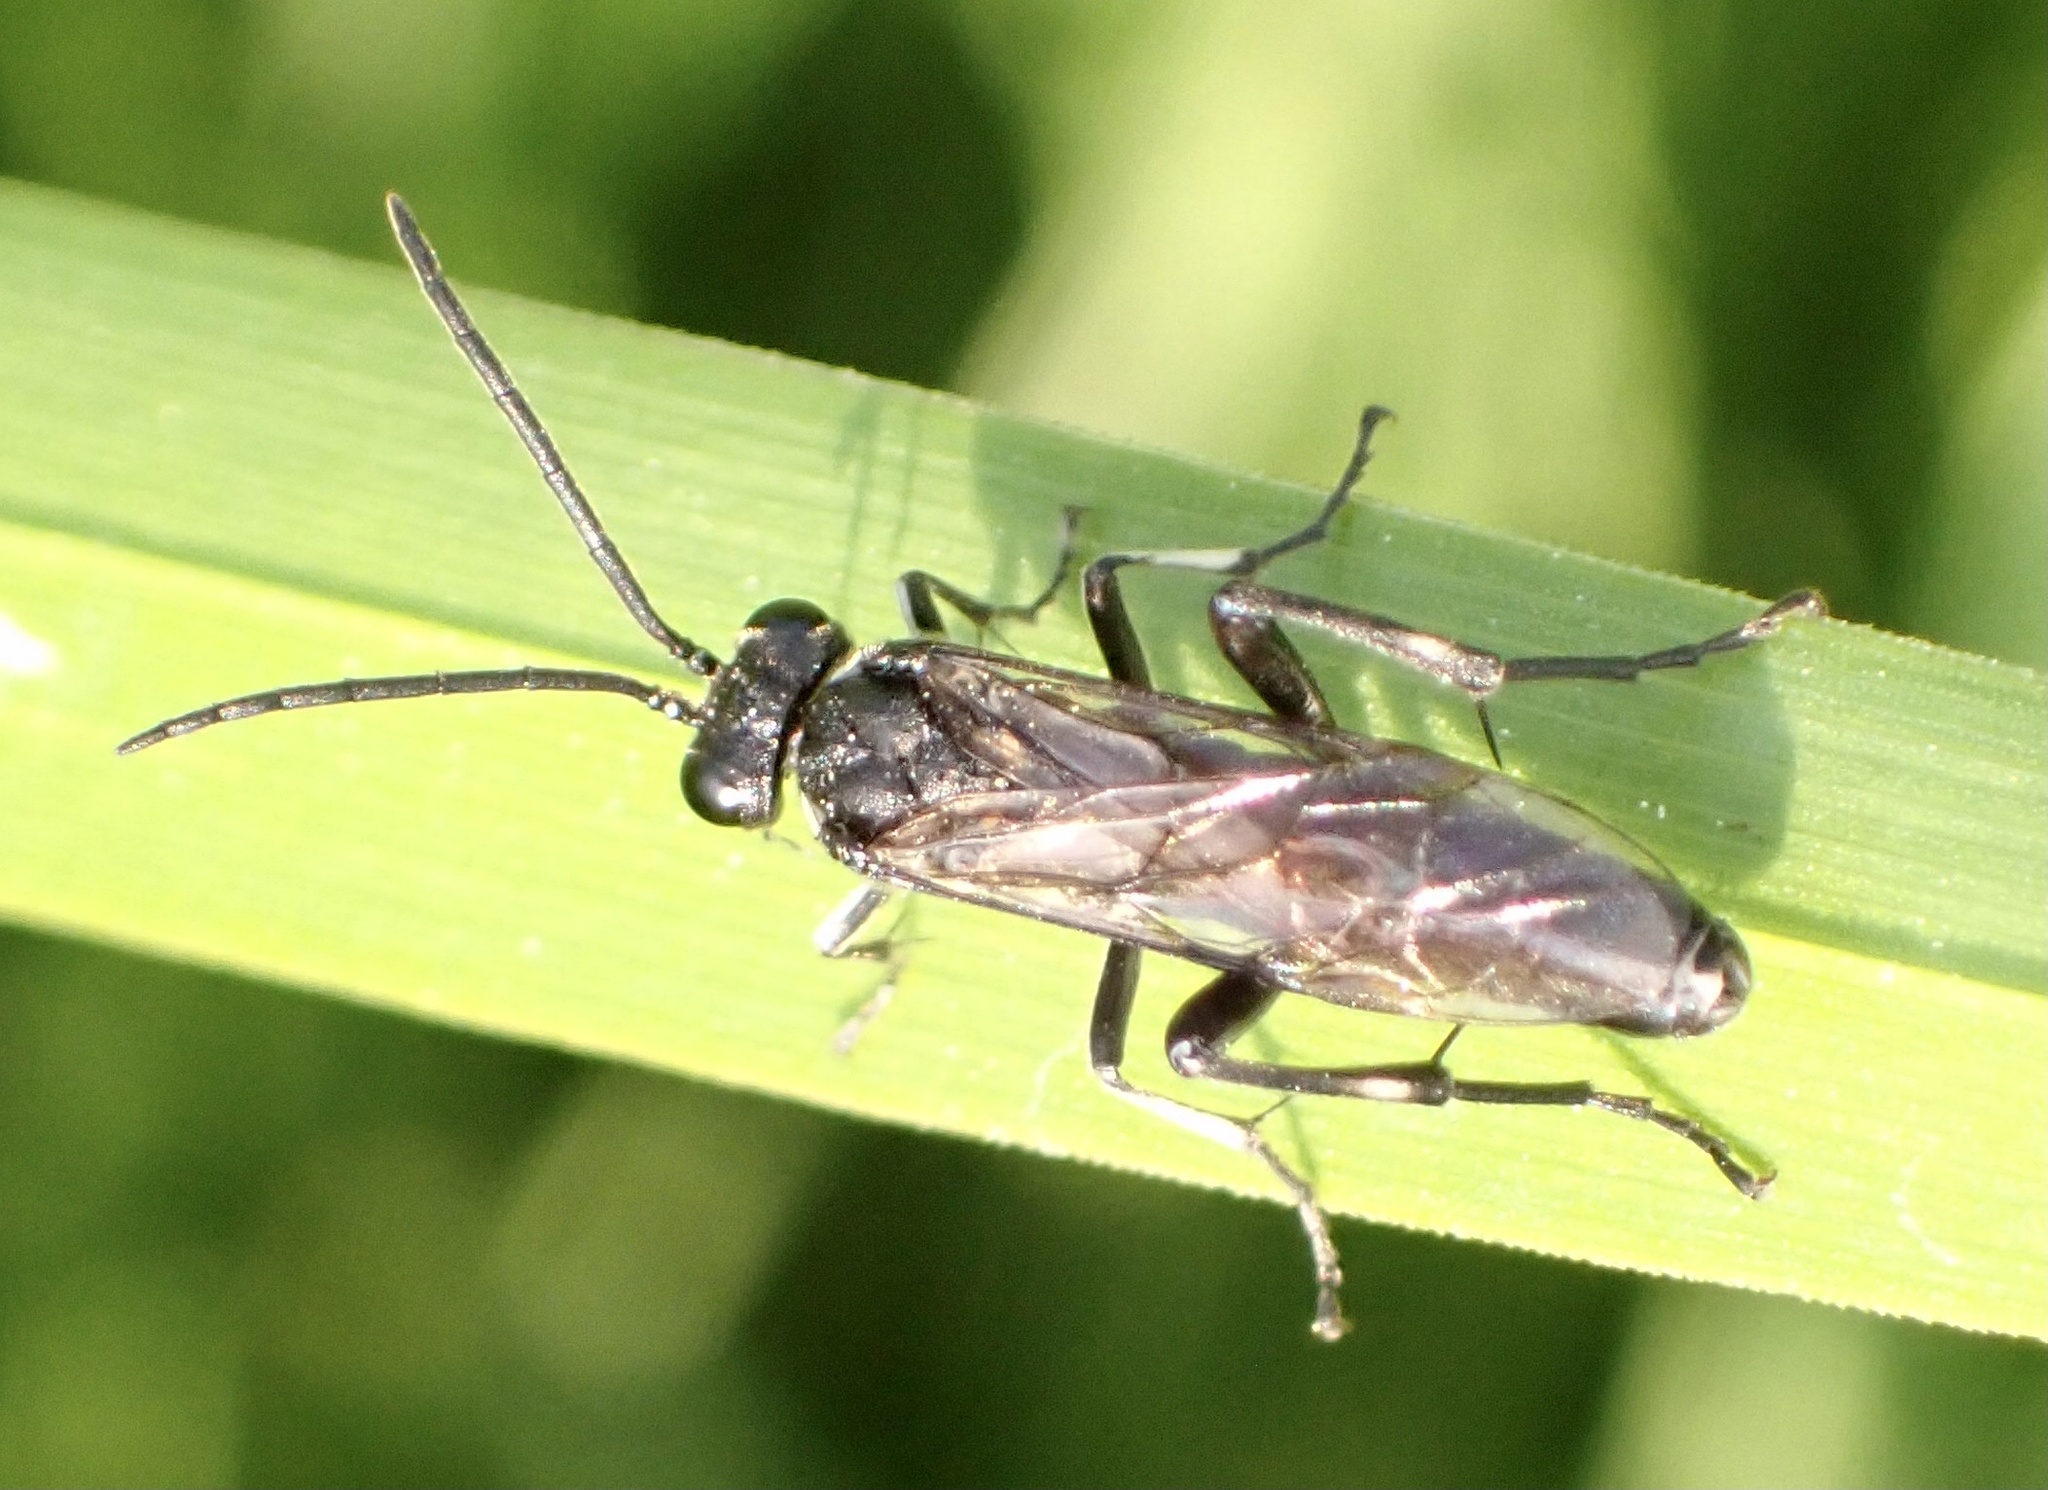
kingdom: Animalia
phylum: Arthropoda
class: Insecta
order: Hymenoptera
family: Tenthredinidae
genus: Macrophya
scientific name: Macrophya duodecimpunctata
